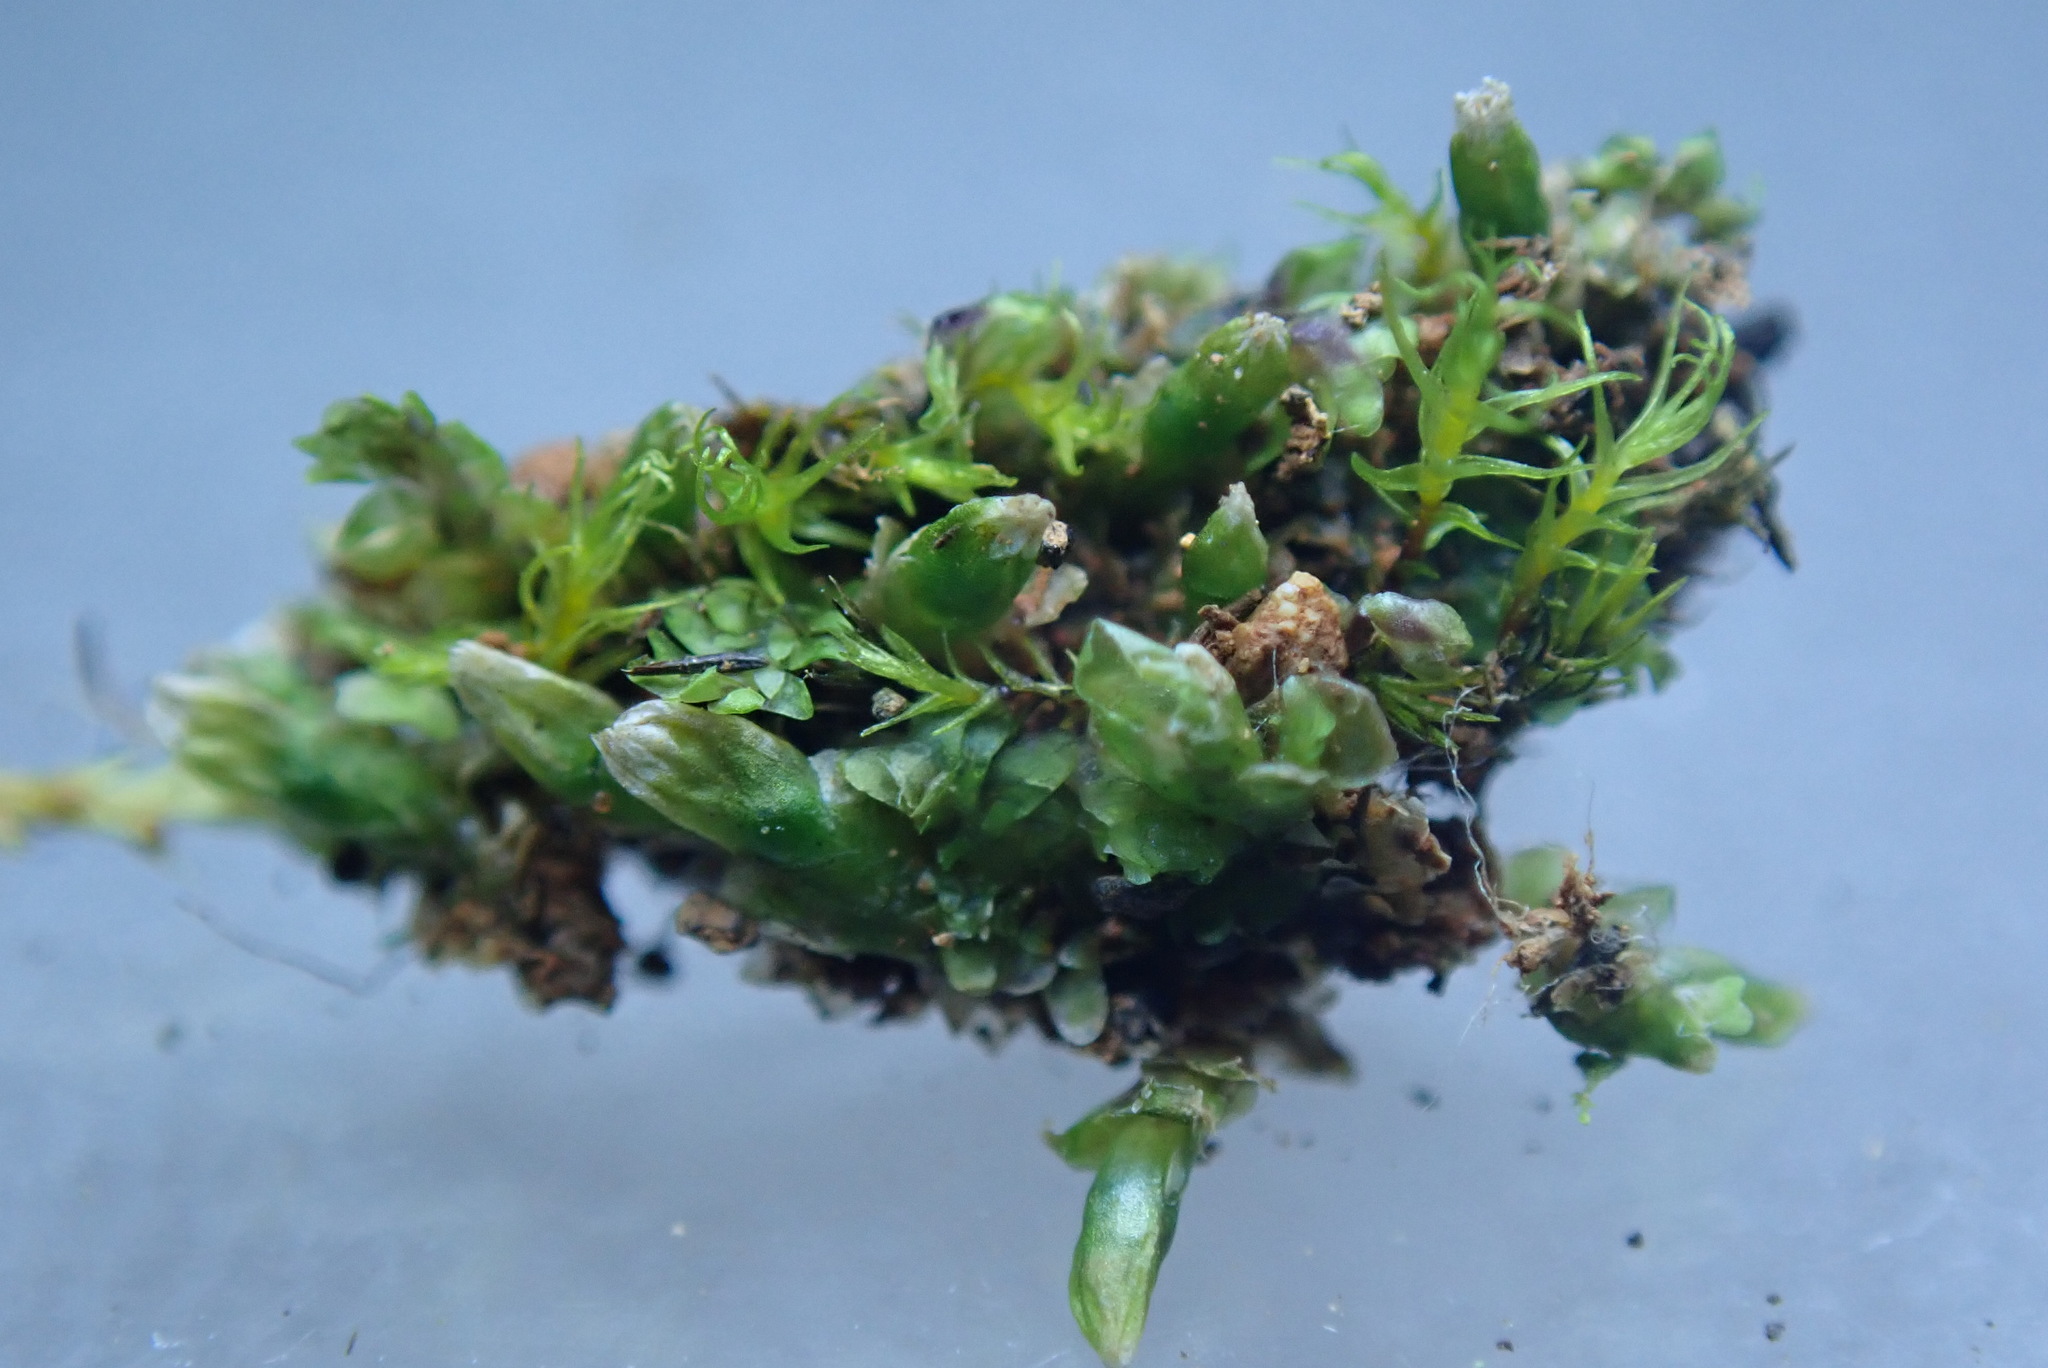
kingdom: Plantae
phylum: Marchantiophyta
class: Jungermanniopsida
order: Jungermanniales
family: Scapaniaceae
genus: Diplophyllum
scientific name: Diplophyllum obtusifolium
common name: Blunt-leaved earwort
